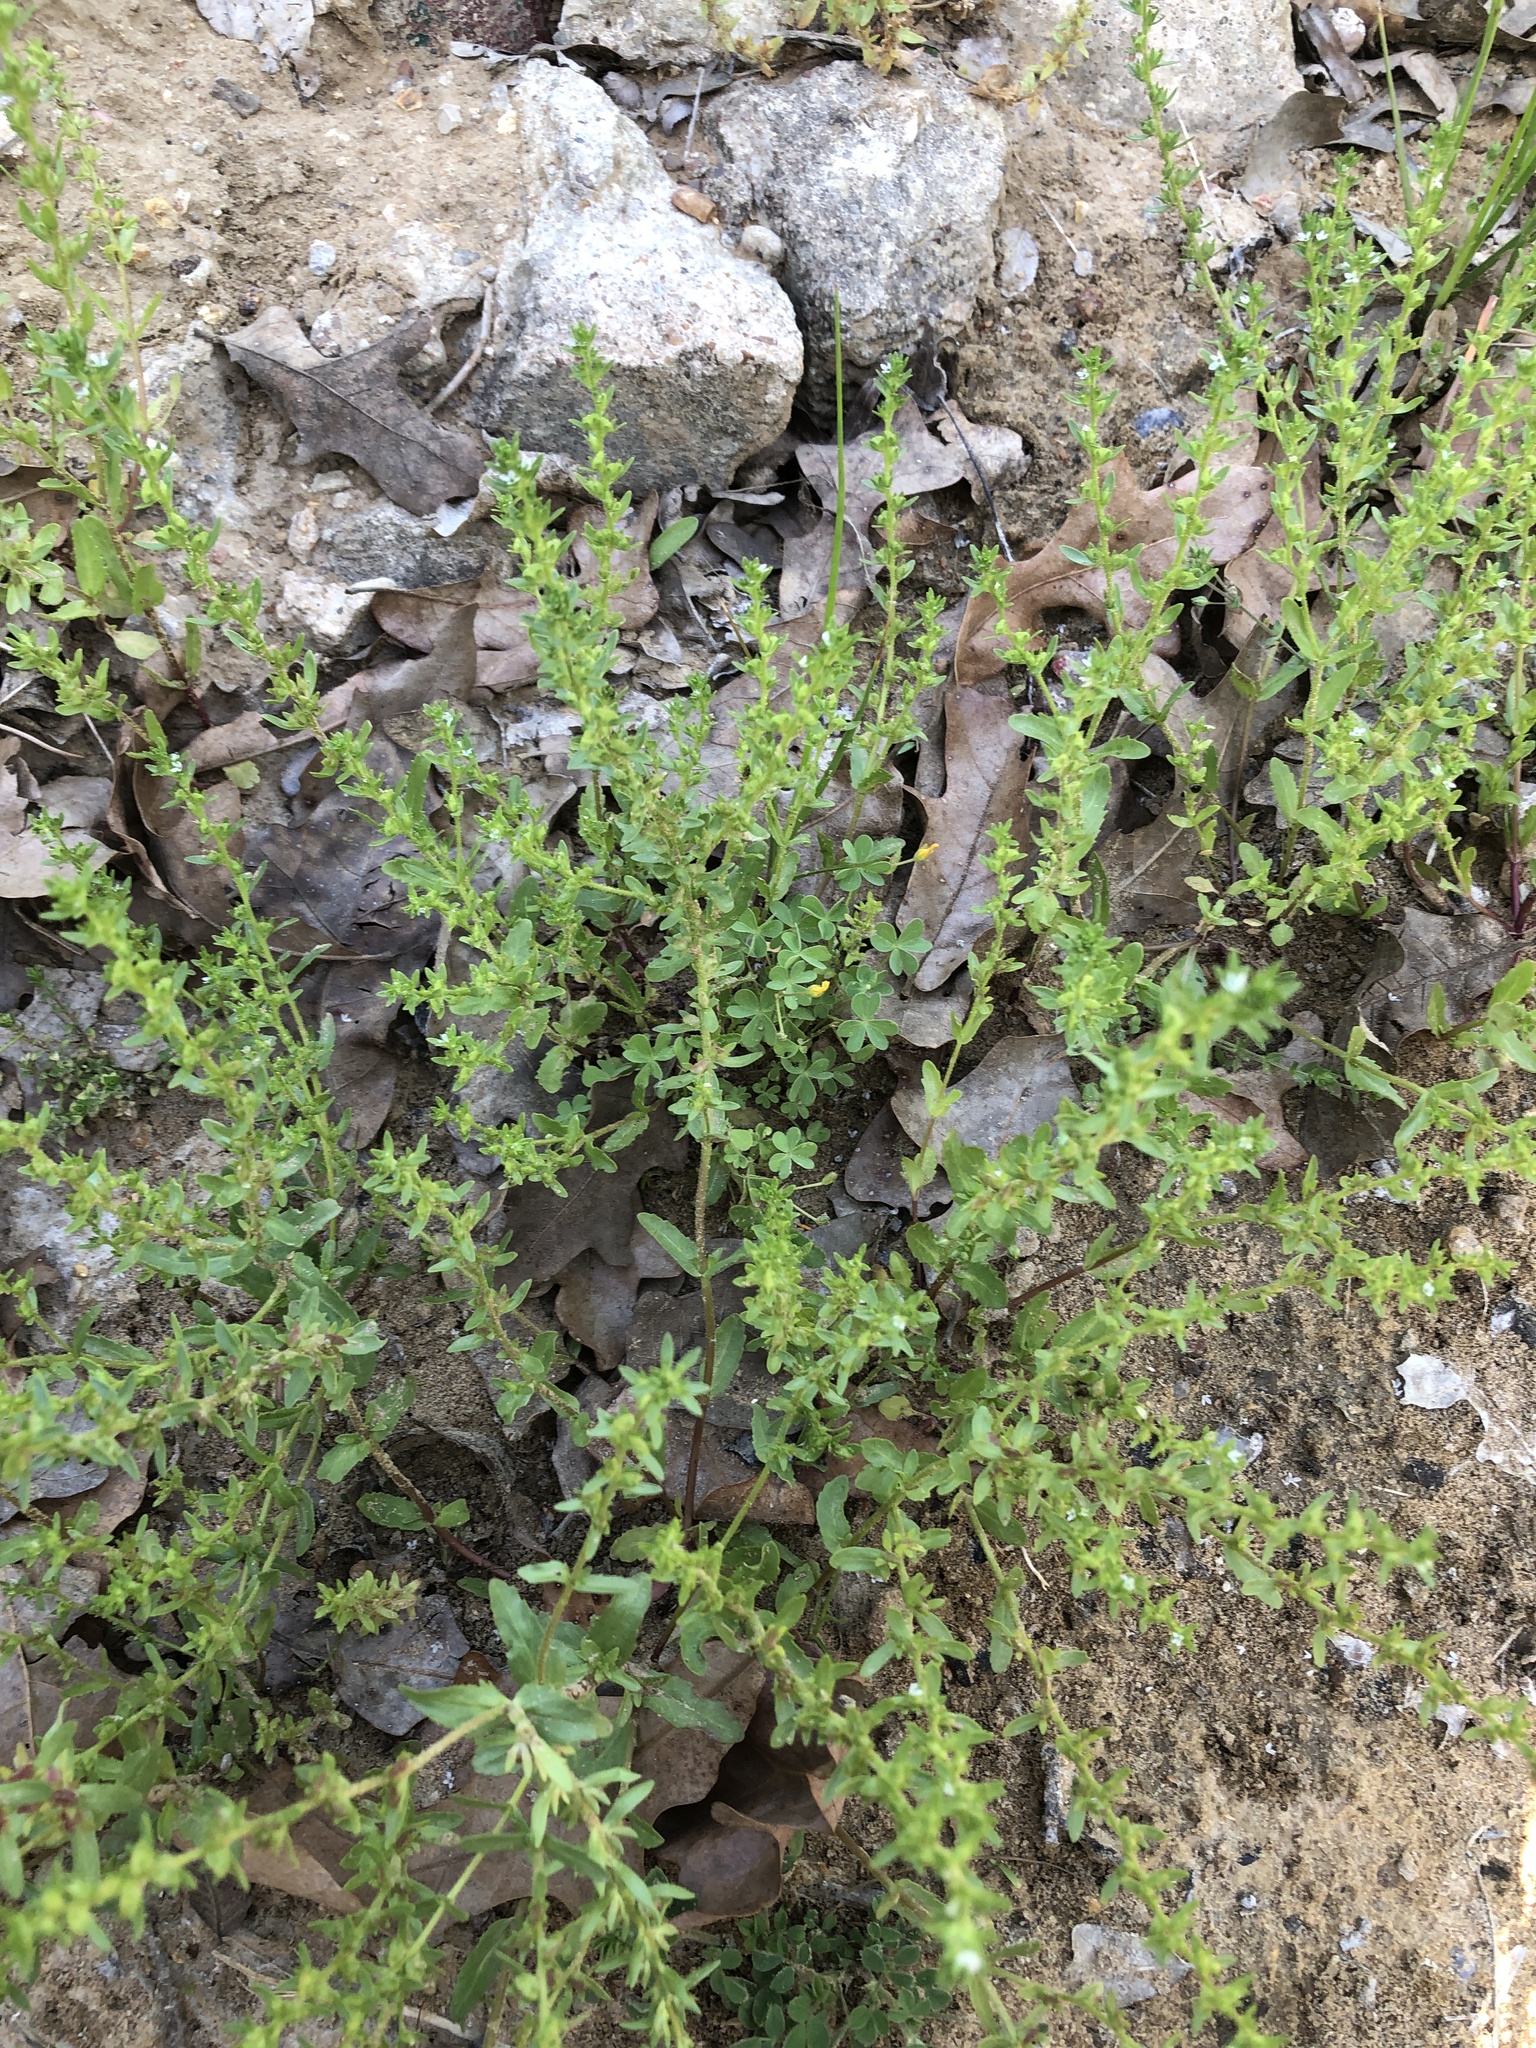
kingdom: Plantae
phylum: Tracheophyta
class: Magnoliopsida
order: Lamiales
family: Plantaginaceae
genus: Veronica
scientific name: Veronica peregrina
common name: Neckweed
